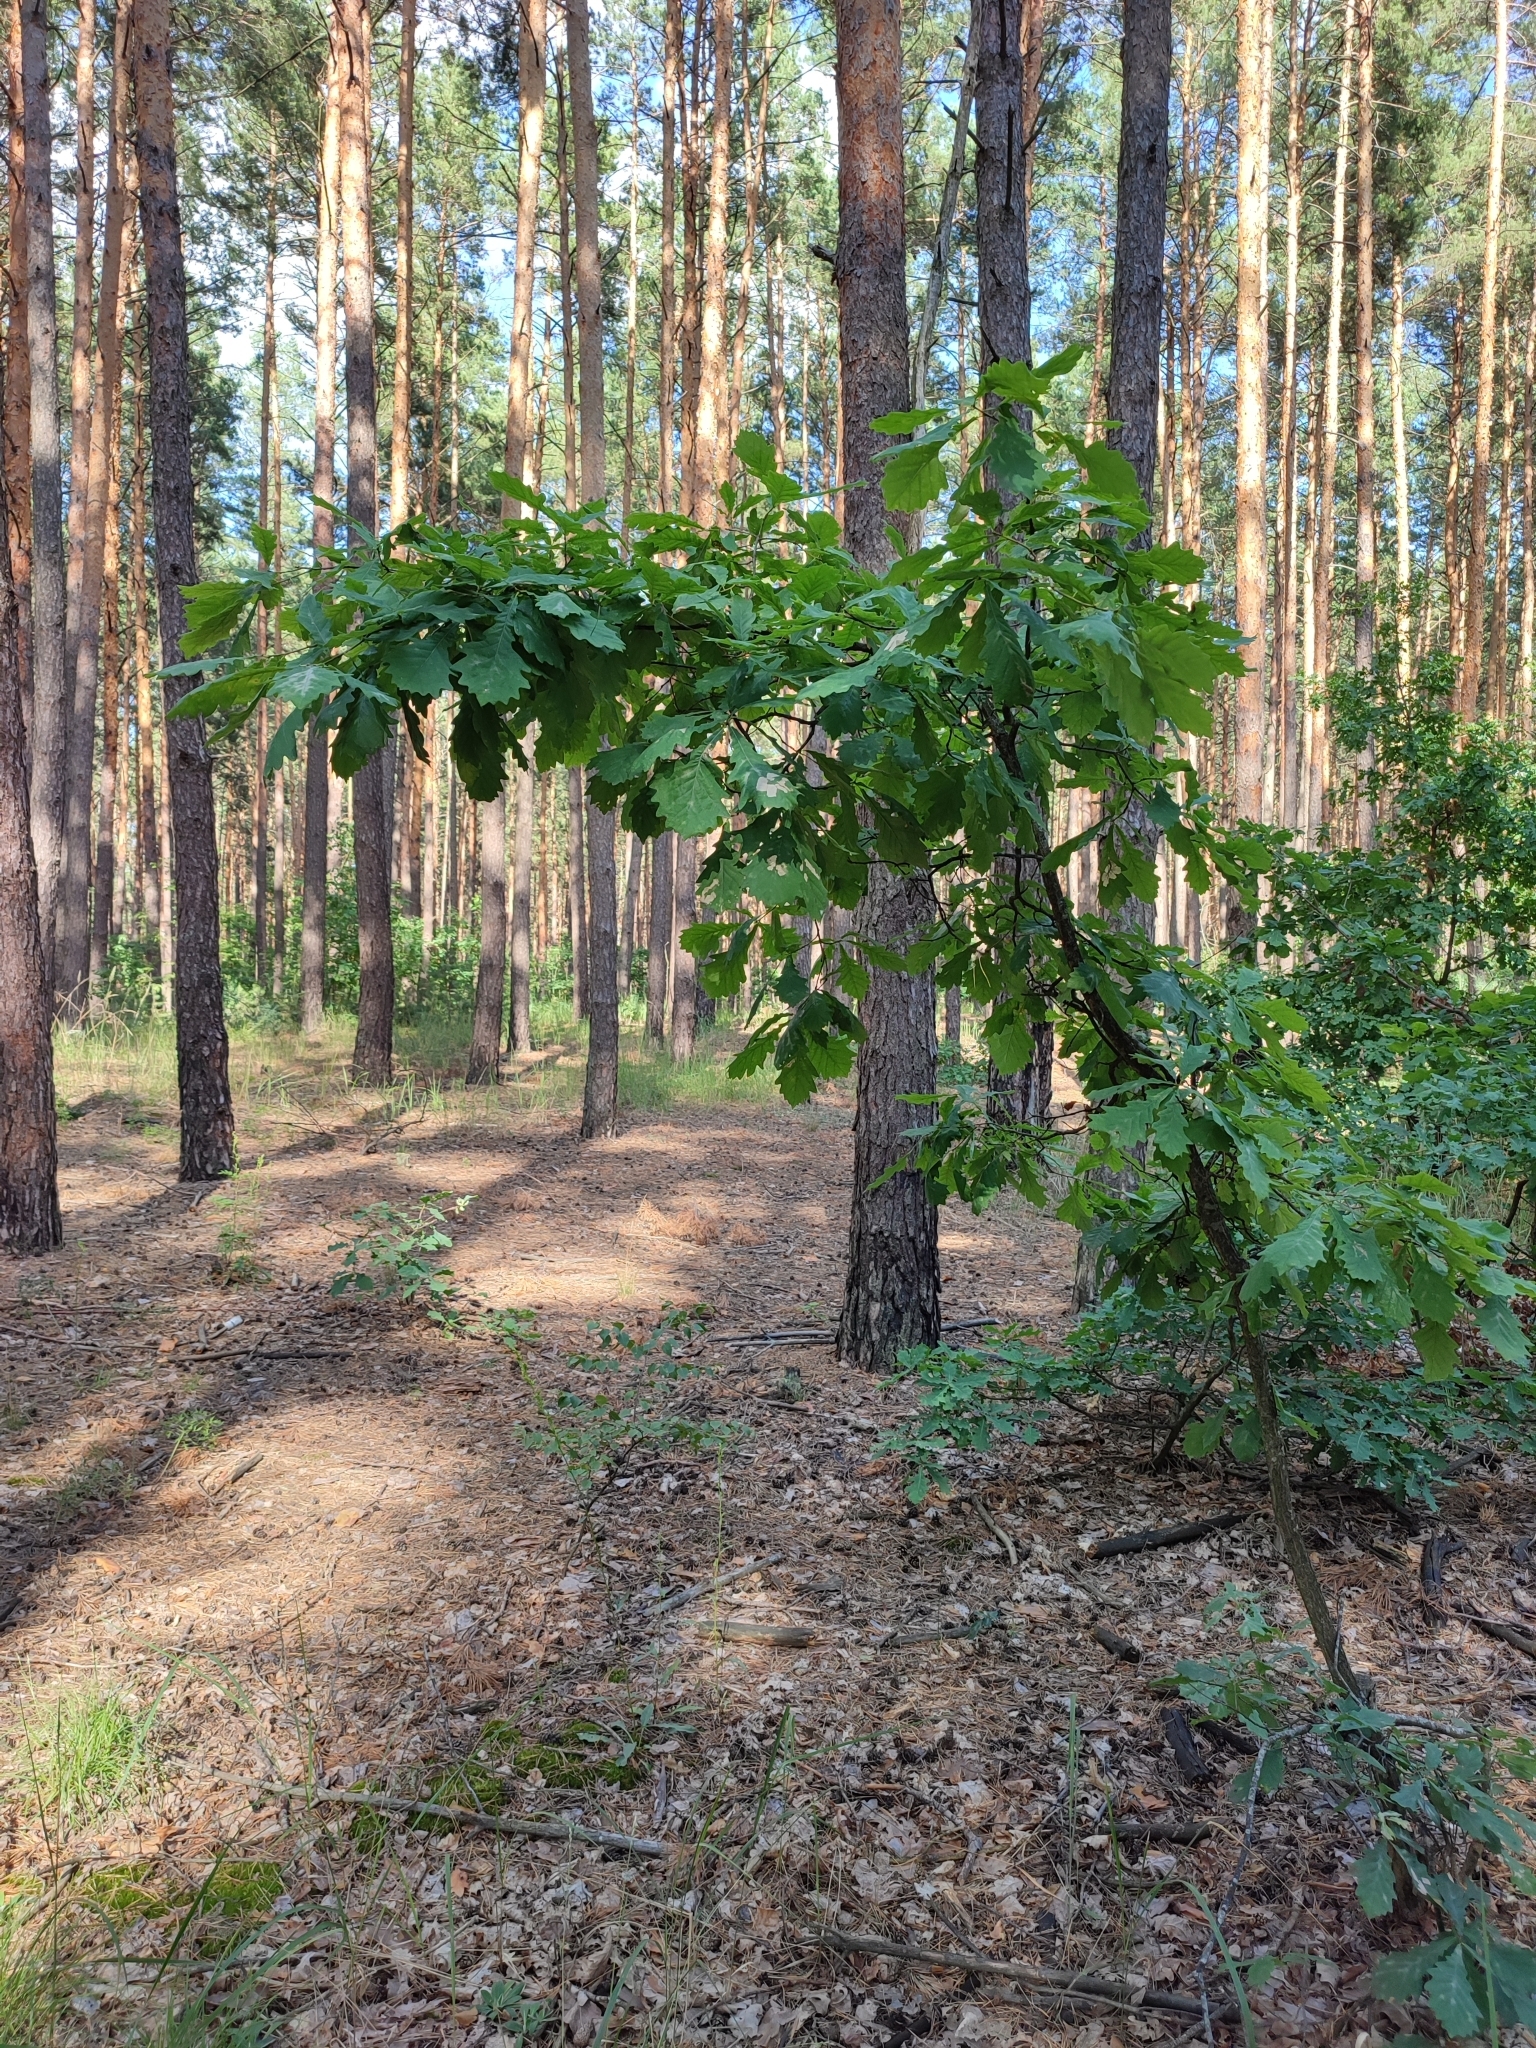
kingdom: Plantae
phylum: Tracheophyta
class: Magnoliopsida
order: Fagales
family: Fagaceae
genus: Quercus
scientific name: Quercus robur
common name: Pedunculate oak
